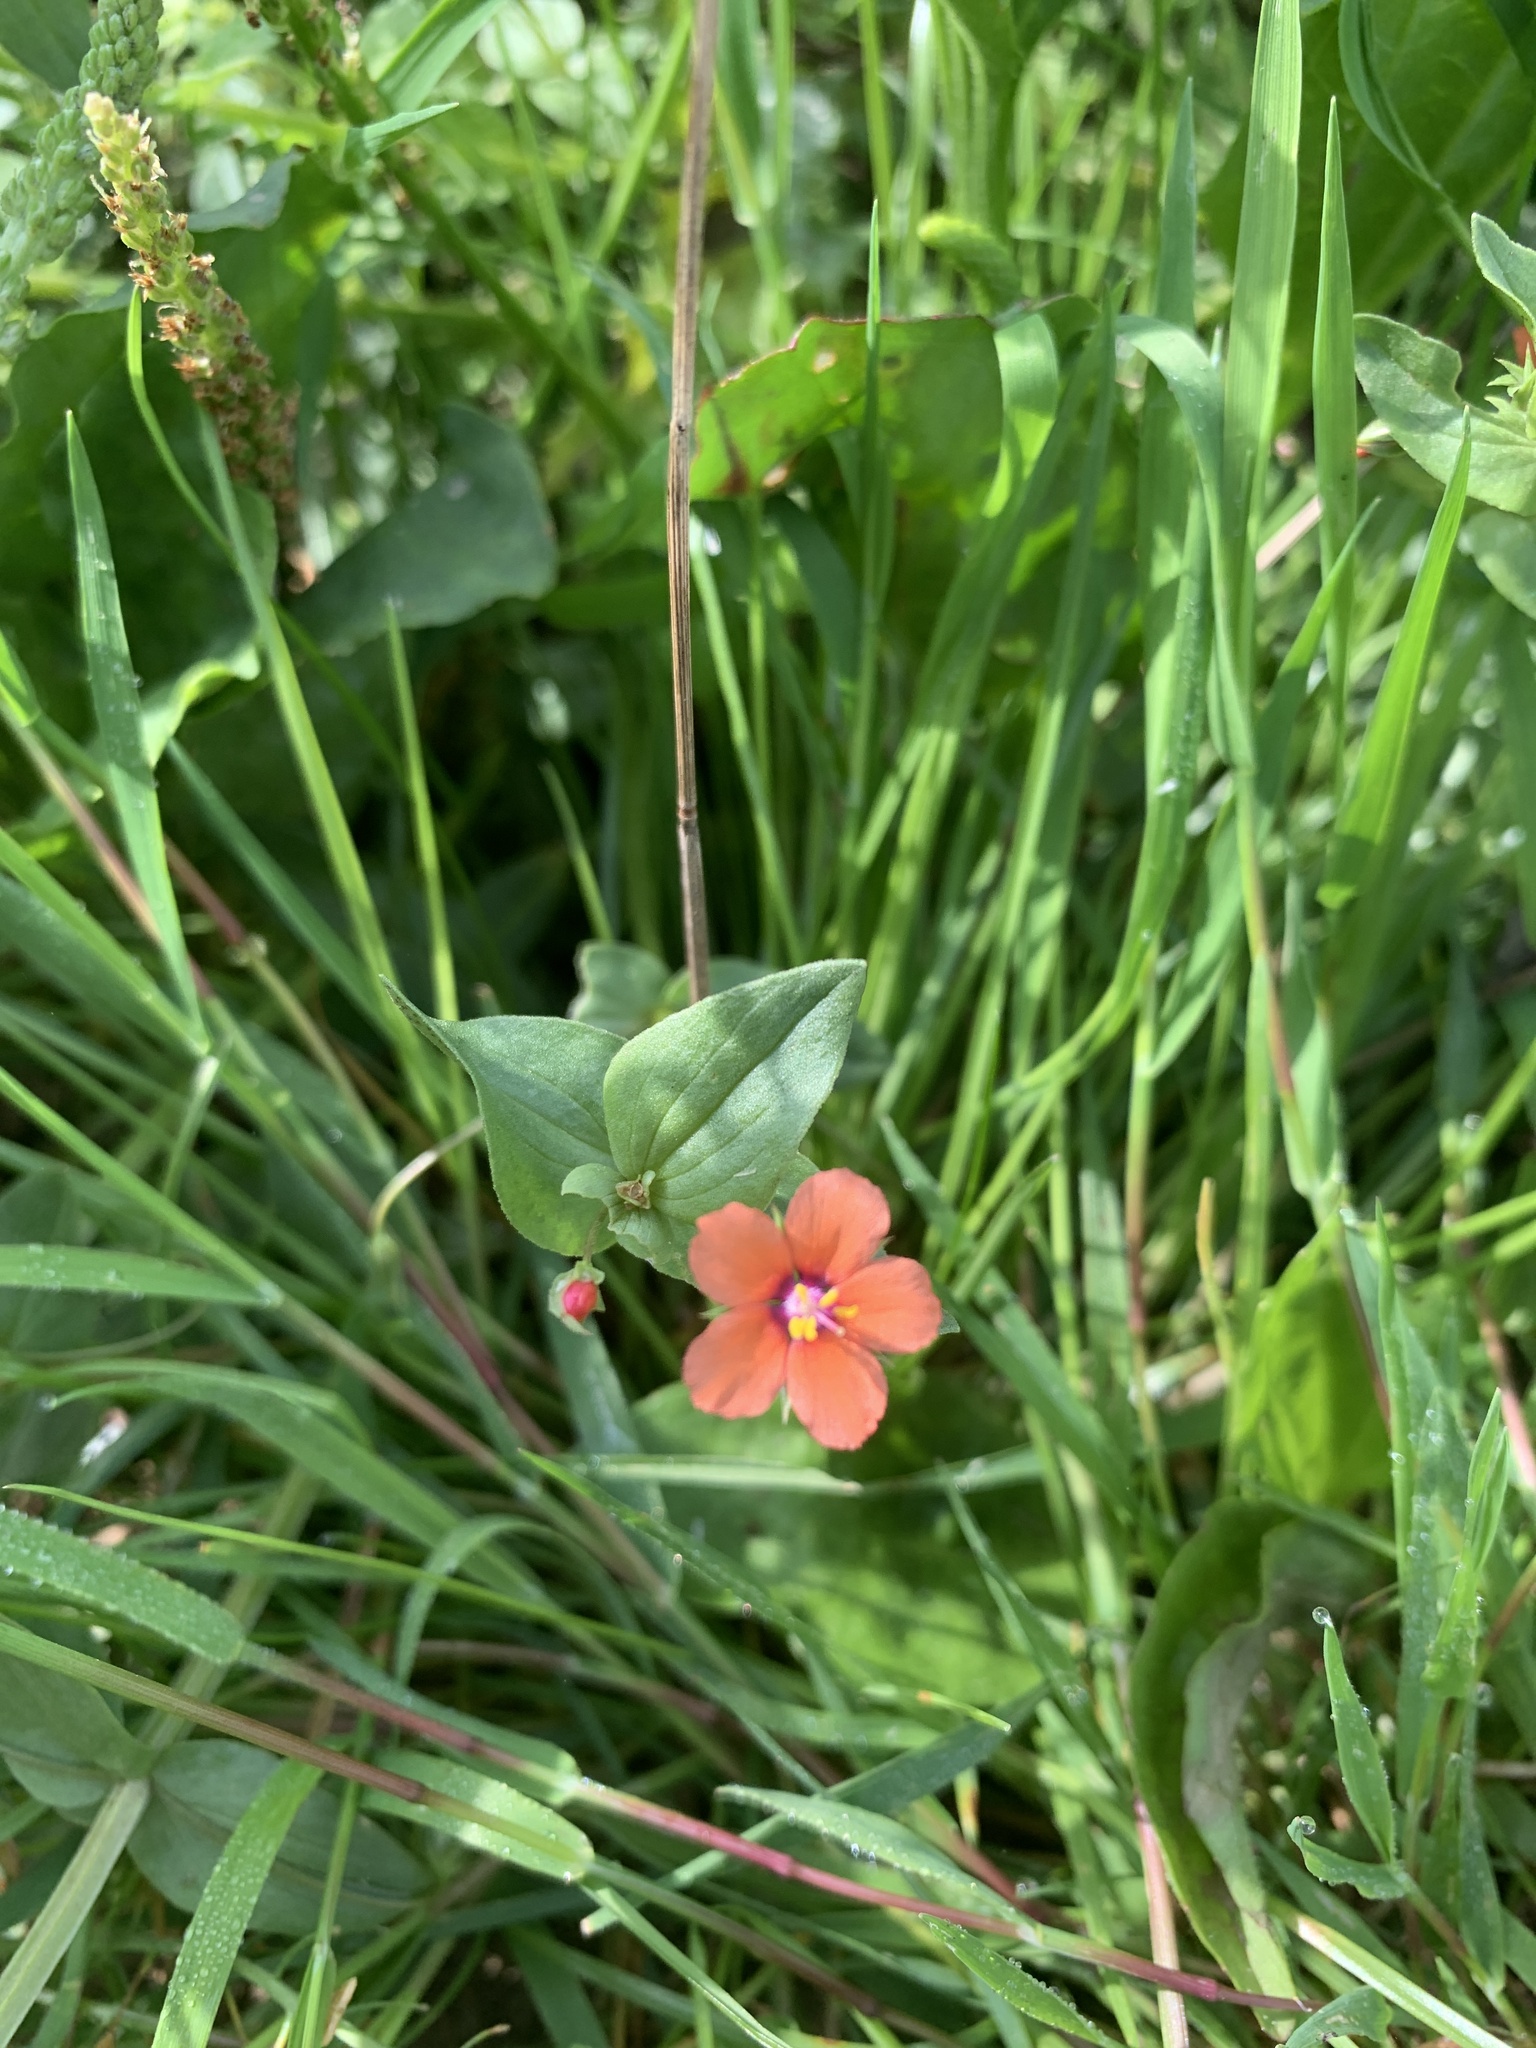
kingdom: Plantae
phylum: Tracheophyta
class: Magnoliopsida
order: Ericales
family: Primulaceae
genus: Lysimachia
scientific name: Lysimachia arvensis
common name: Scarlet pimpernel
